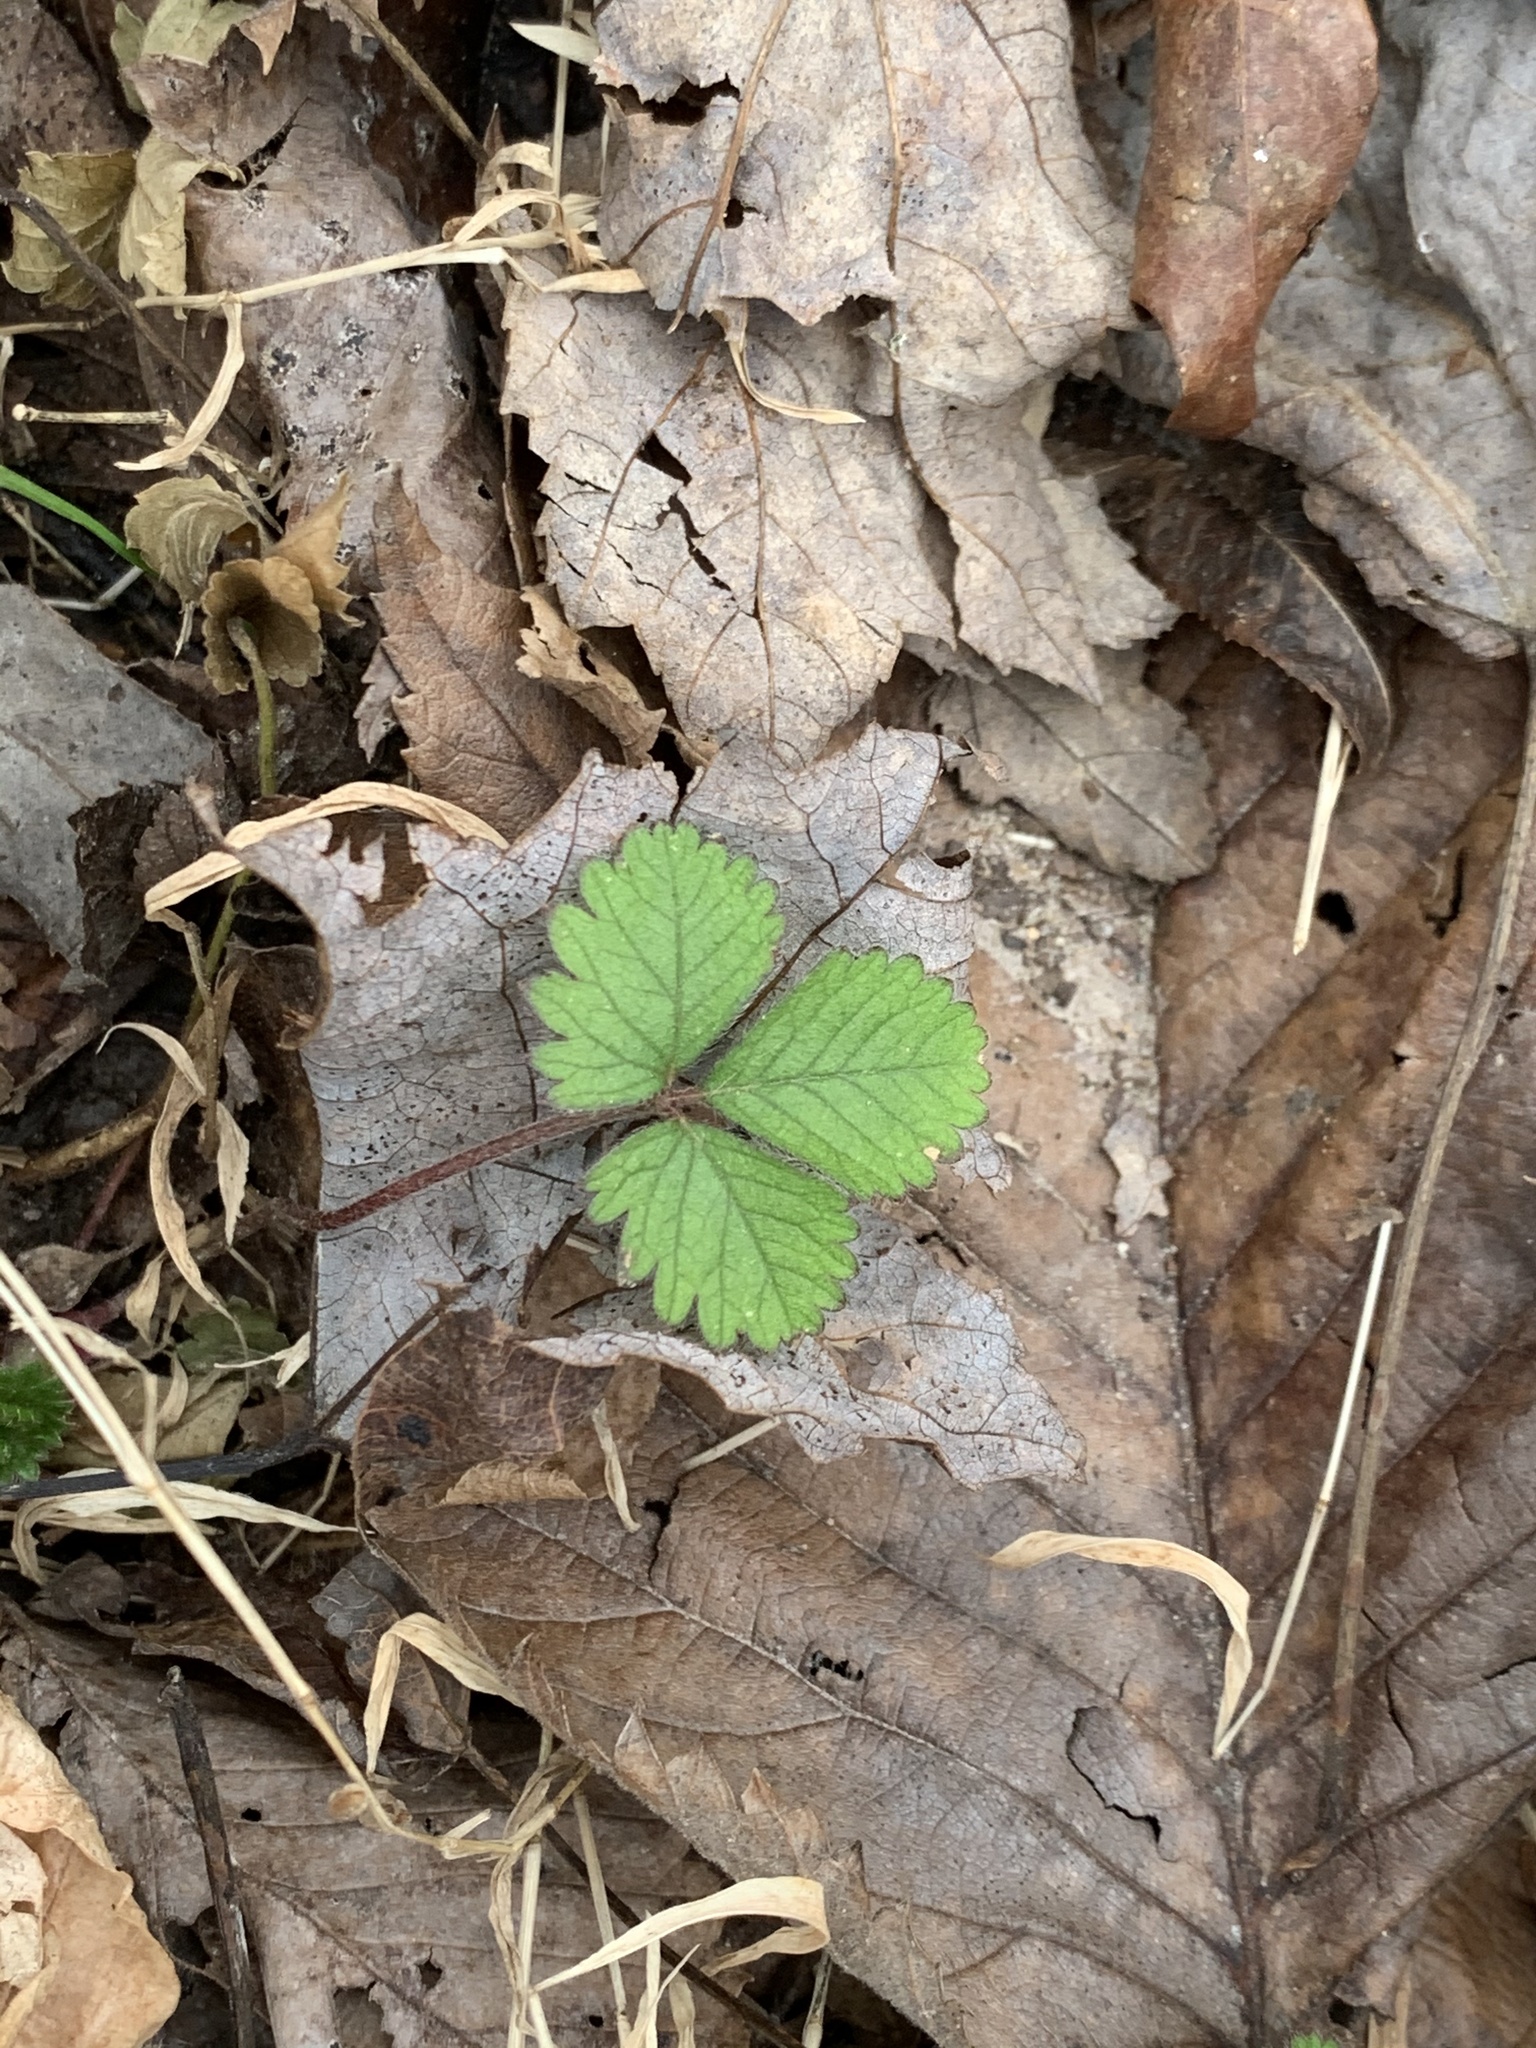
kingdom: Plantae
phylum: Tracheophyta
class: Magnoliopsida
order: Rosales
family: Rosaceae
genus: Potentilla
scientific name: Potentilla indica
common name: Yellow-flowered strawberry
